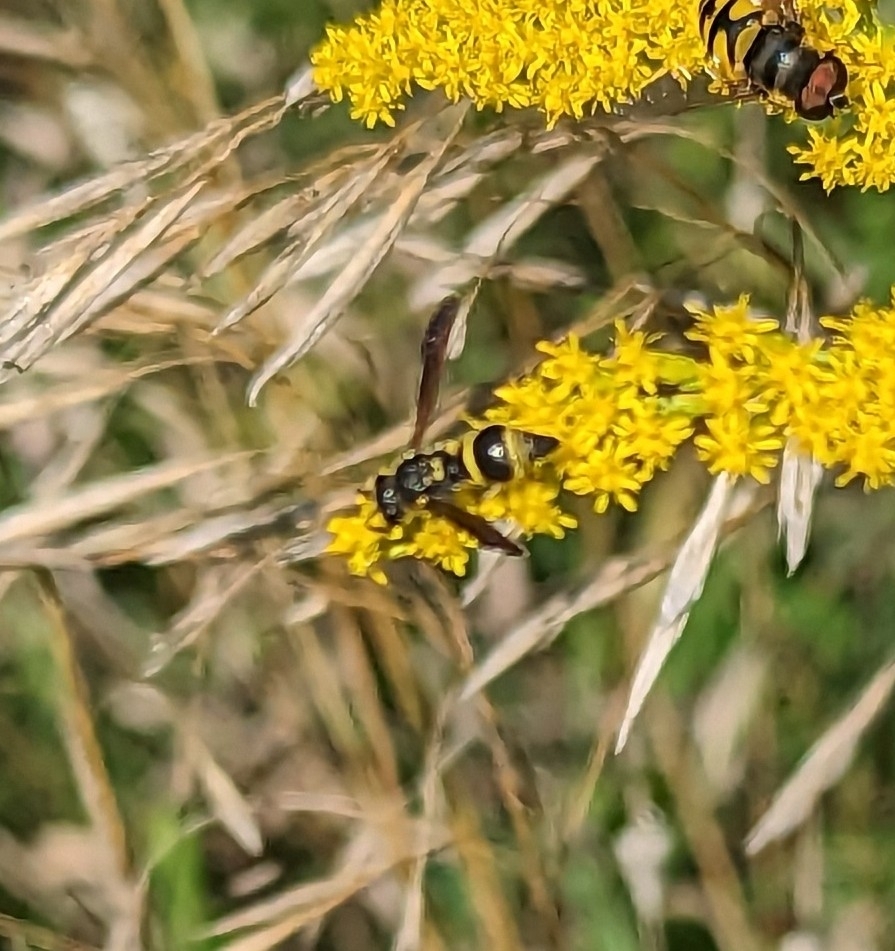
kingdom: Animalia
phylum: Arthropoda
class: Insecta
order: Hymenoptera
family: Vespidae
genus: Ancistrocerus
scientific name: Ancistrocerus campestris
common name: Smiling mason wasp
